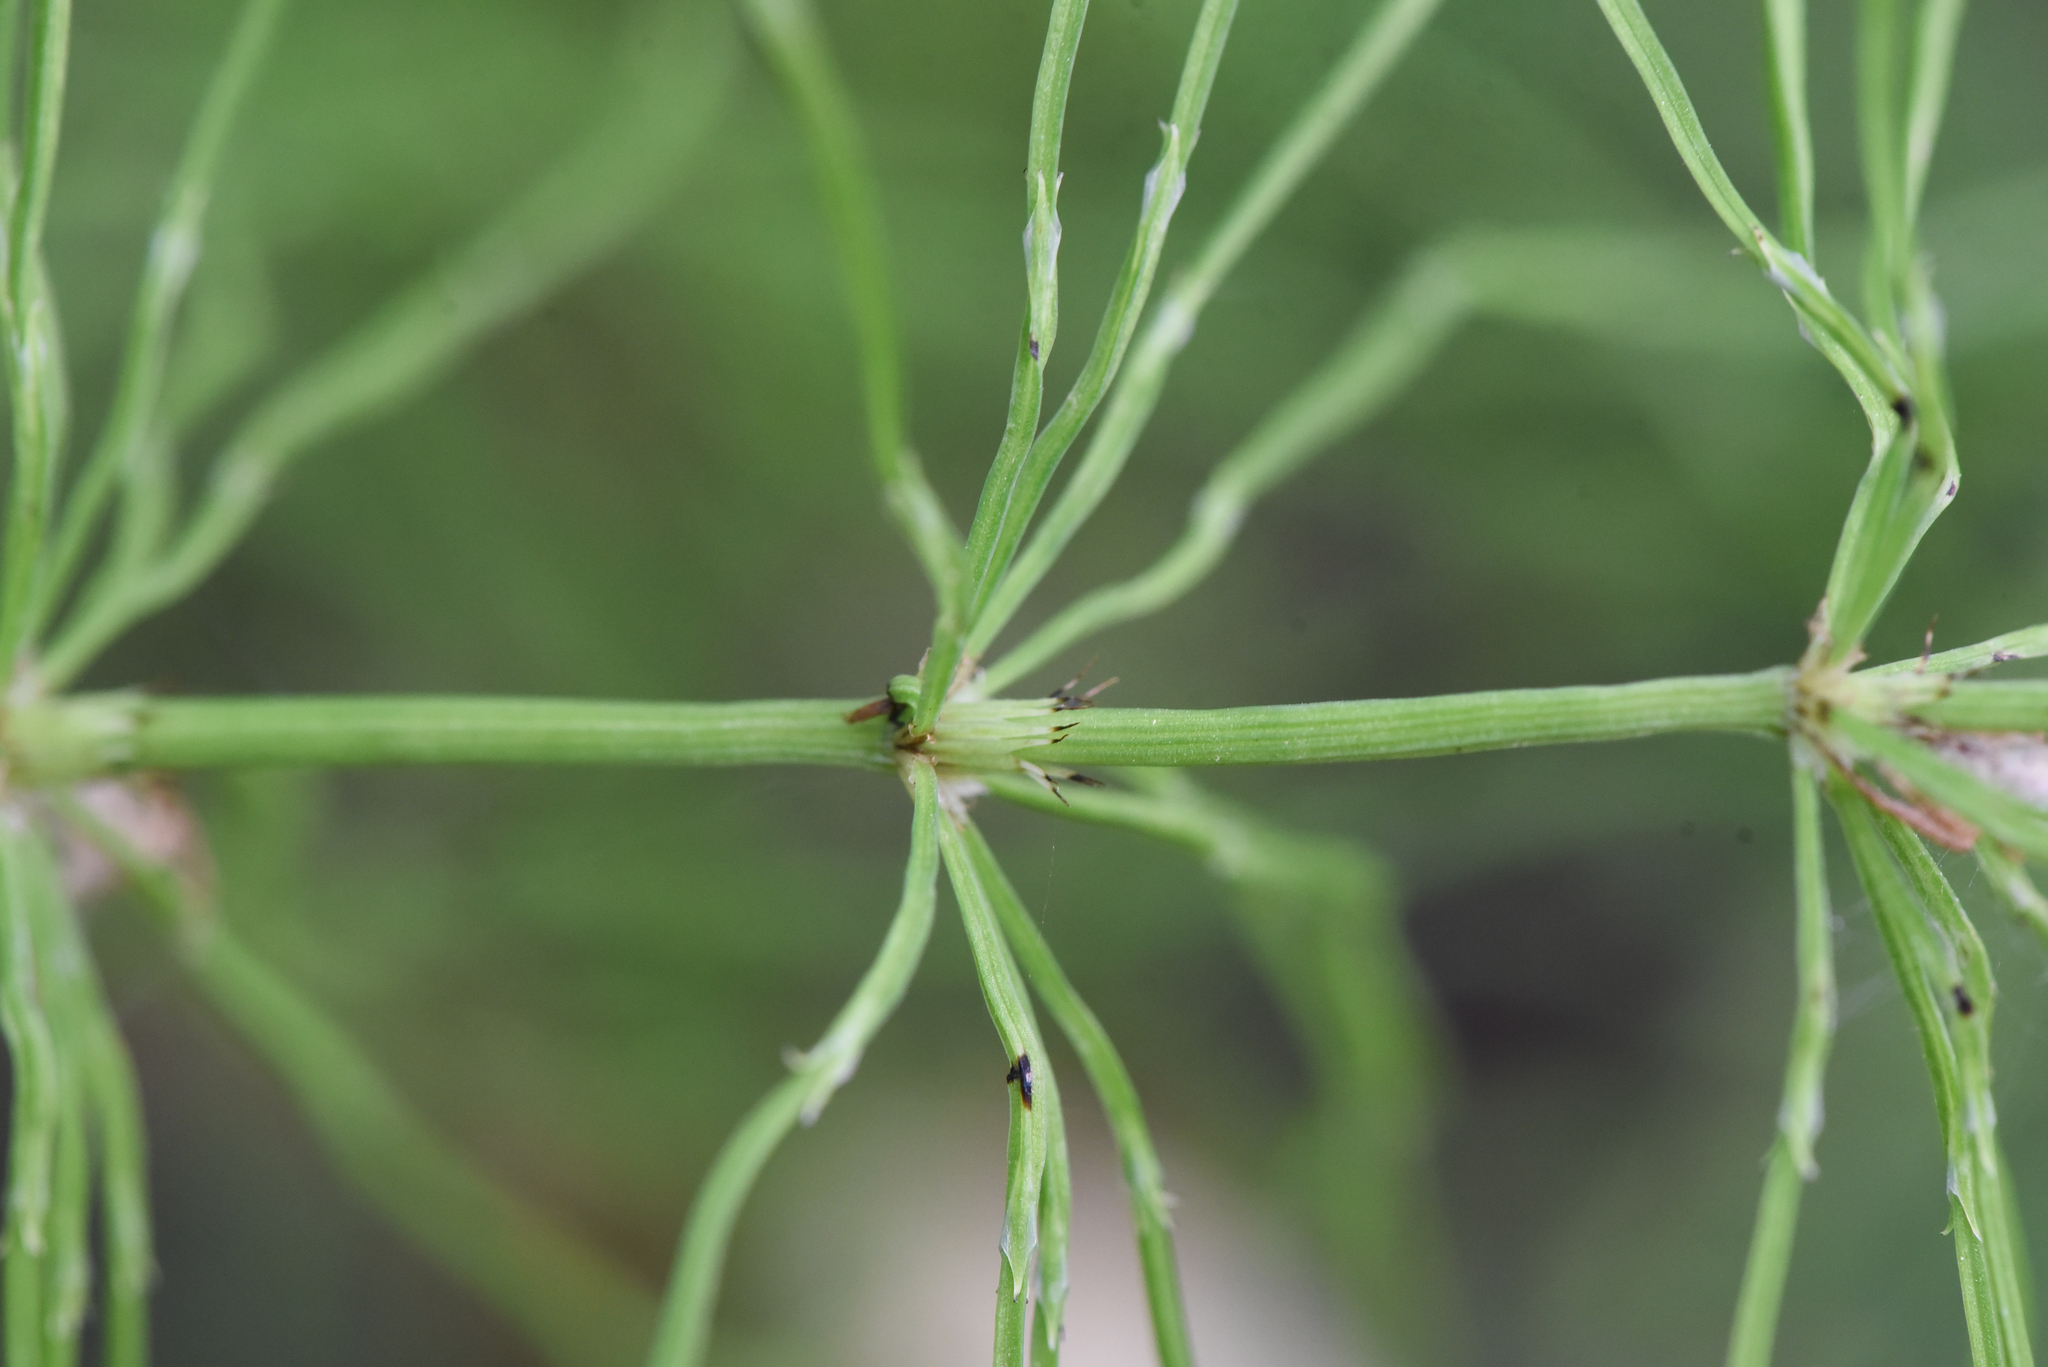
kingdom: Plantae
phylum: Tracheophyta
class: Polypodiopsida
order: Equisetales
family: Equisetaceae
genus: Equisetum
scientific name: Equisetum arvense
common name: Field horsetail
